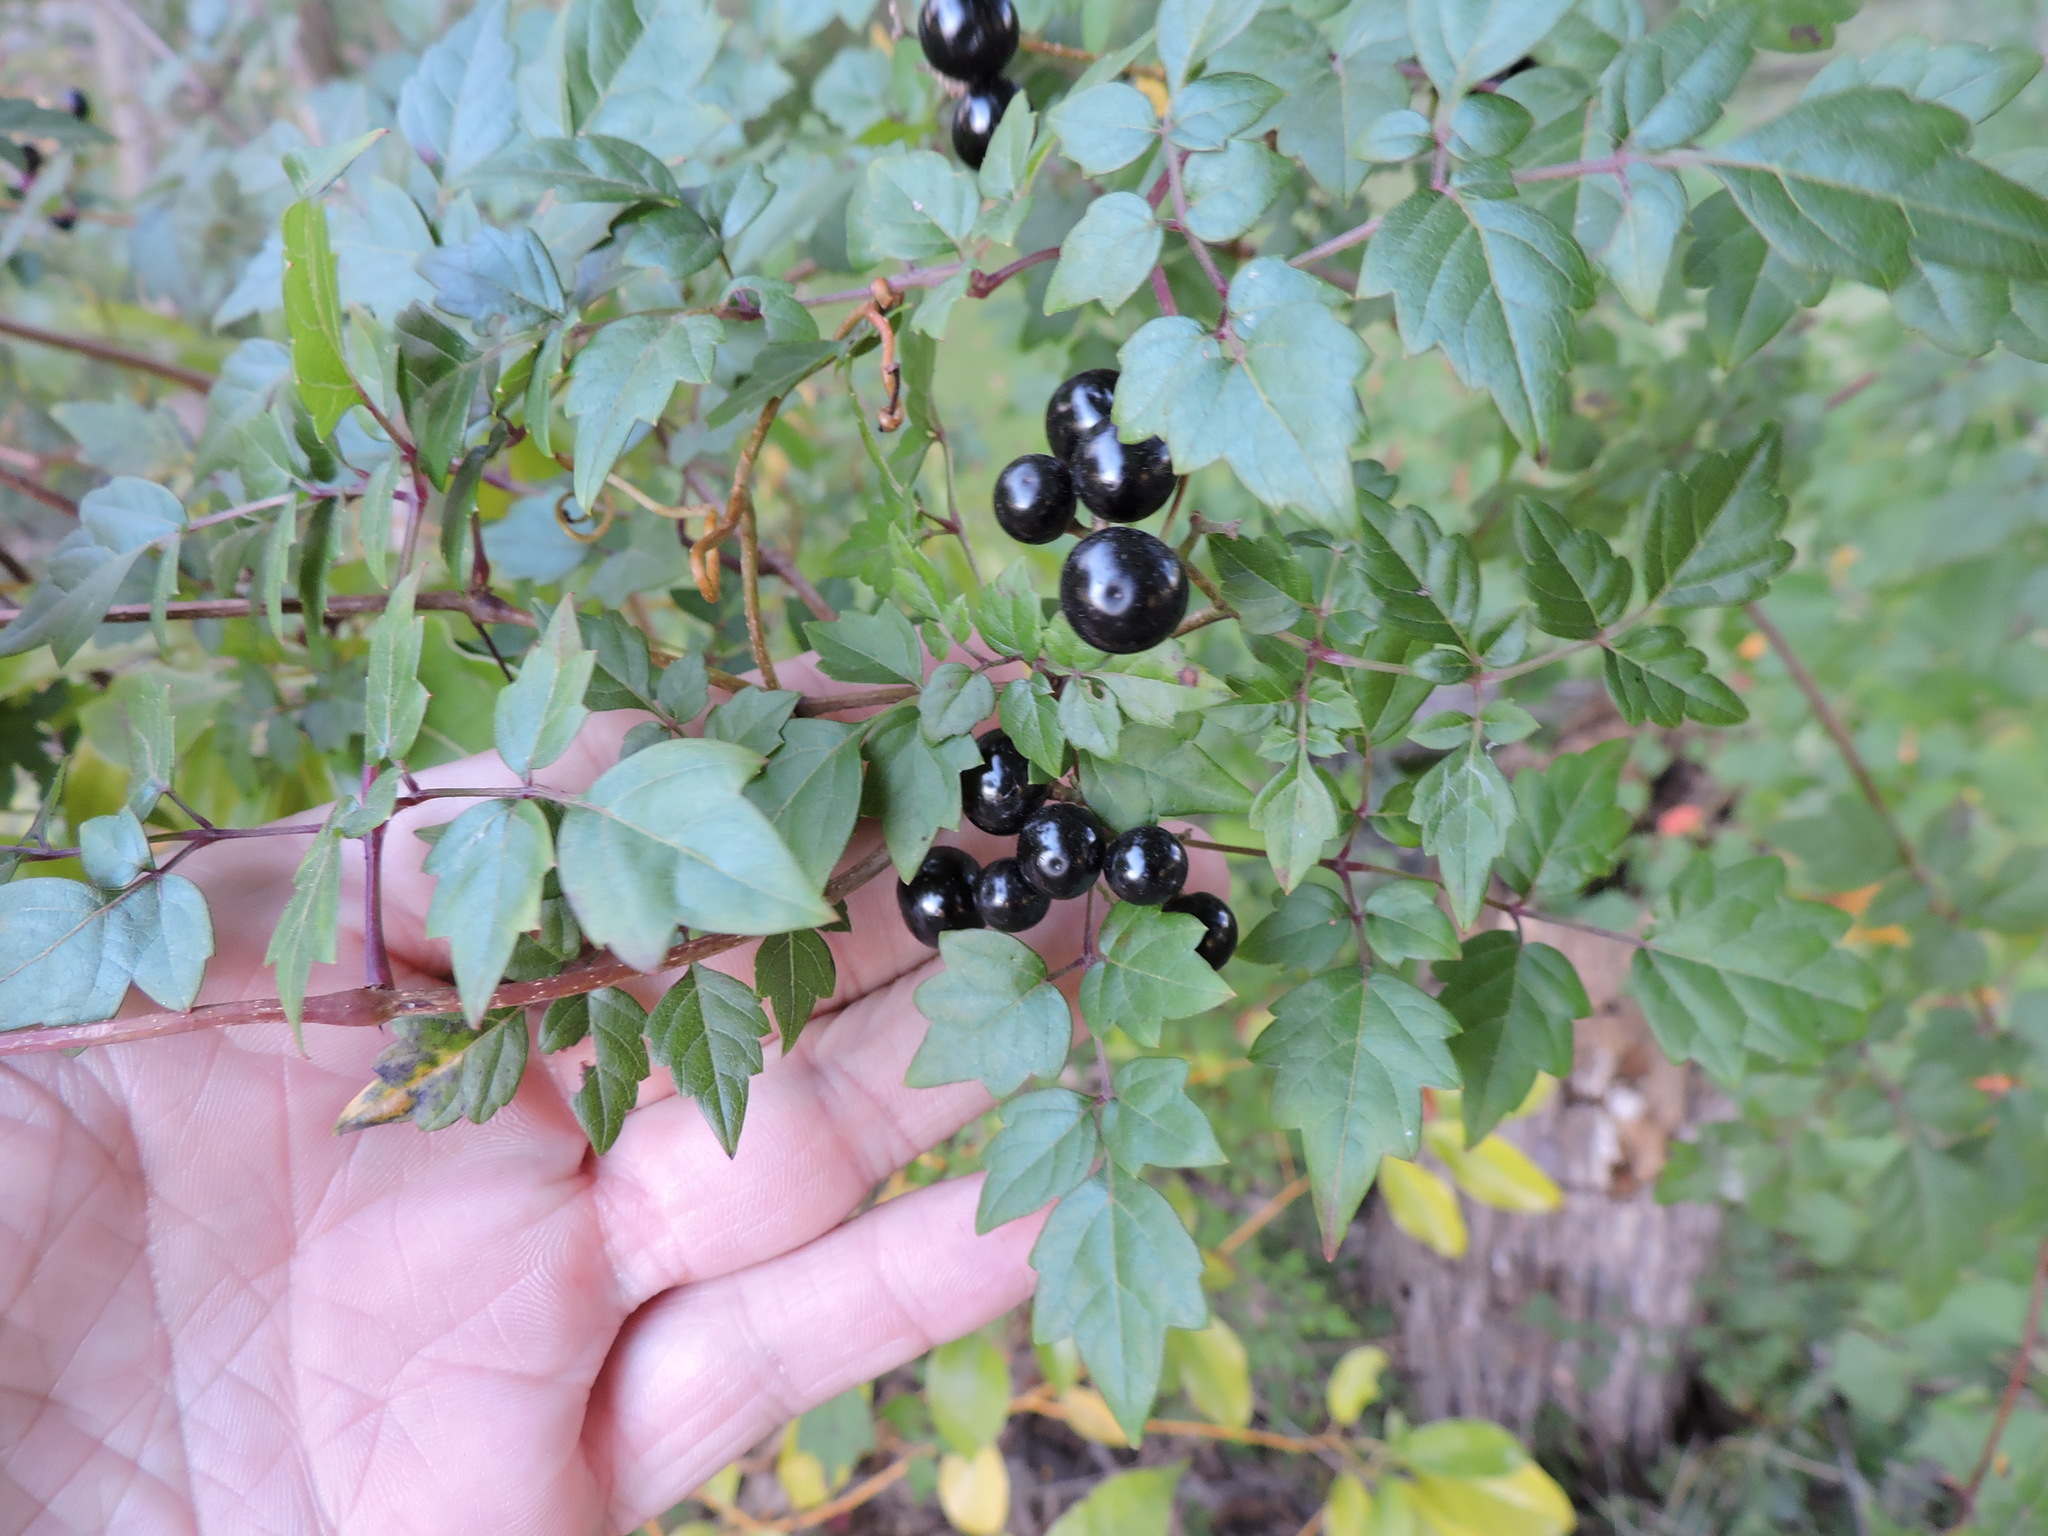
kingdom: Plantae
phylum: Tracheophyta
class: Magnoliopsida
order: Vitales
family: Vitaceae
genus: Nekemias
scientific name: Nekemias arborea
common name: Peppervine
